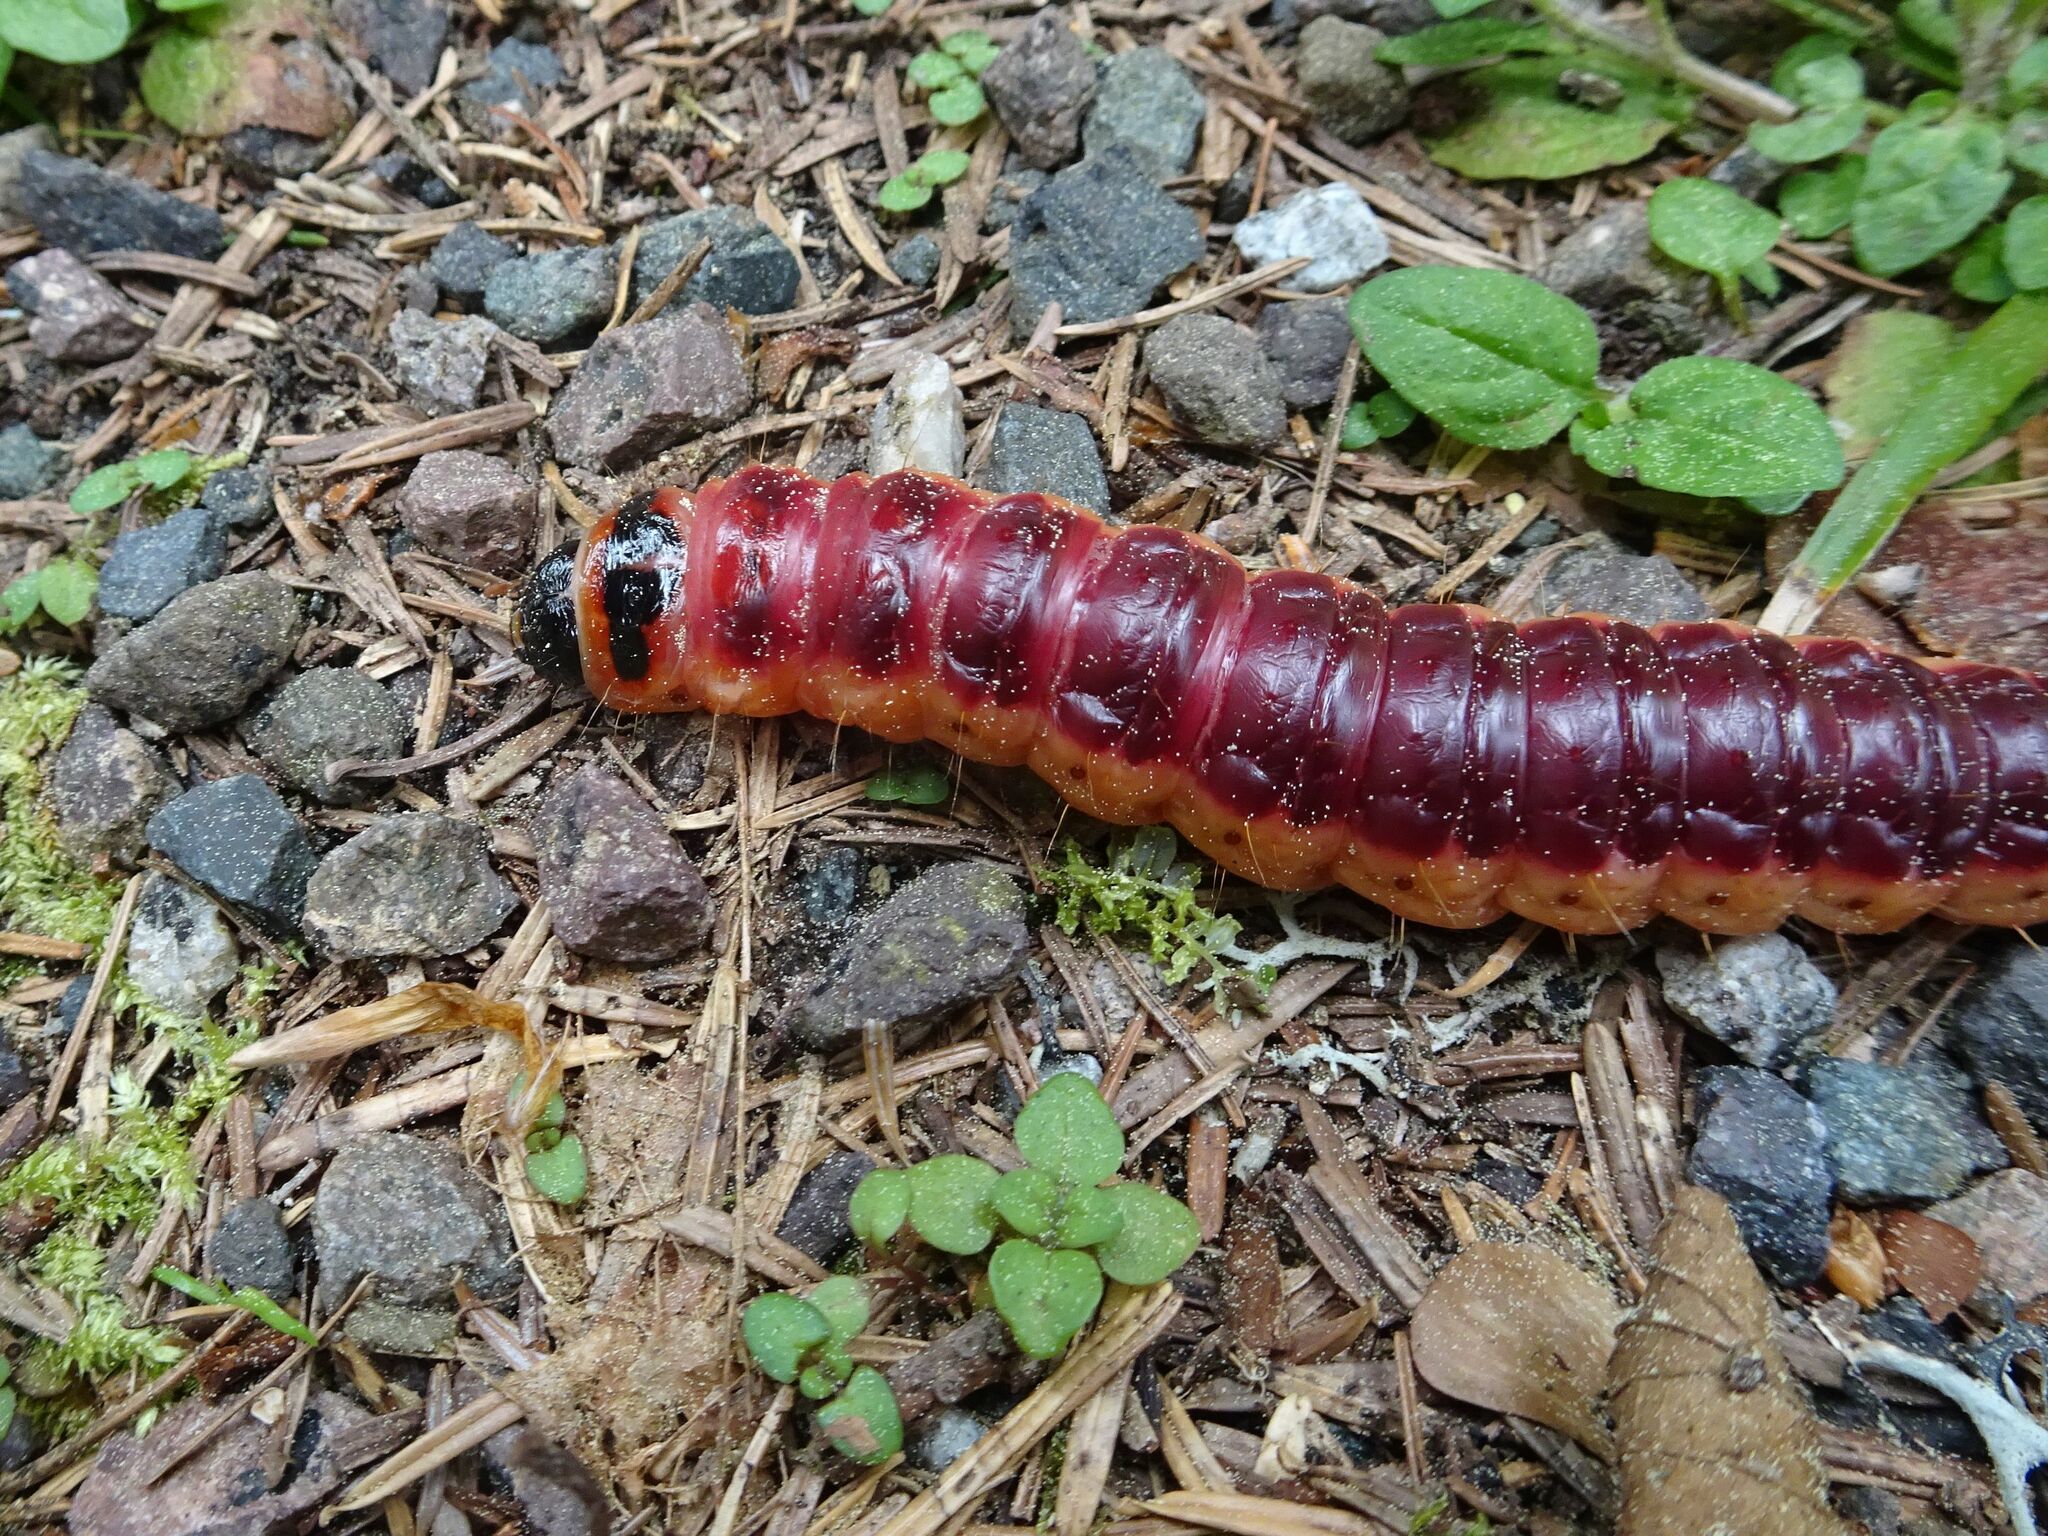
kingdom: Animalia
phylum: Arthropoda
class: Insecta
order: Lepidoptera
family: Cossidae
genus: Cossus
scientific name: Cossus cossus
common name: Goat moth
